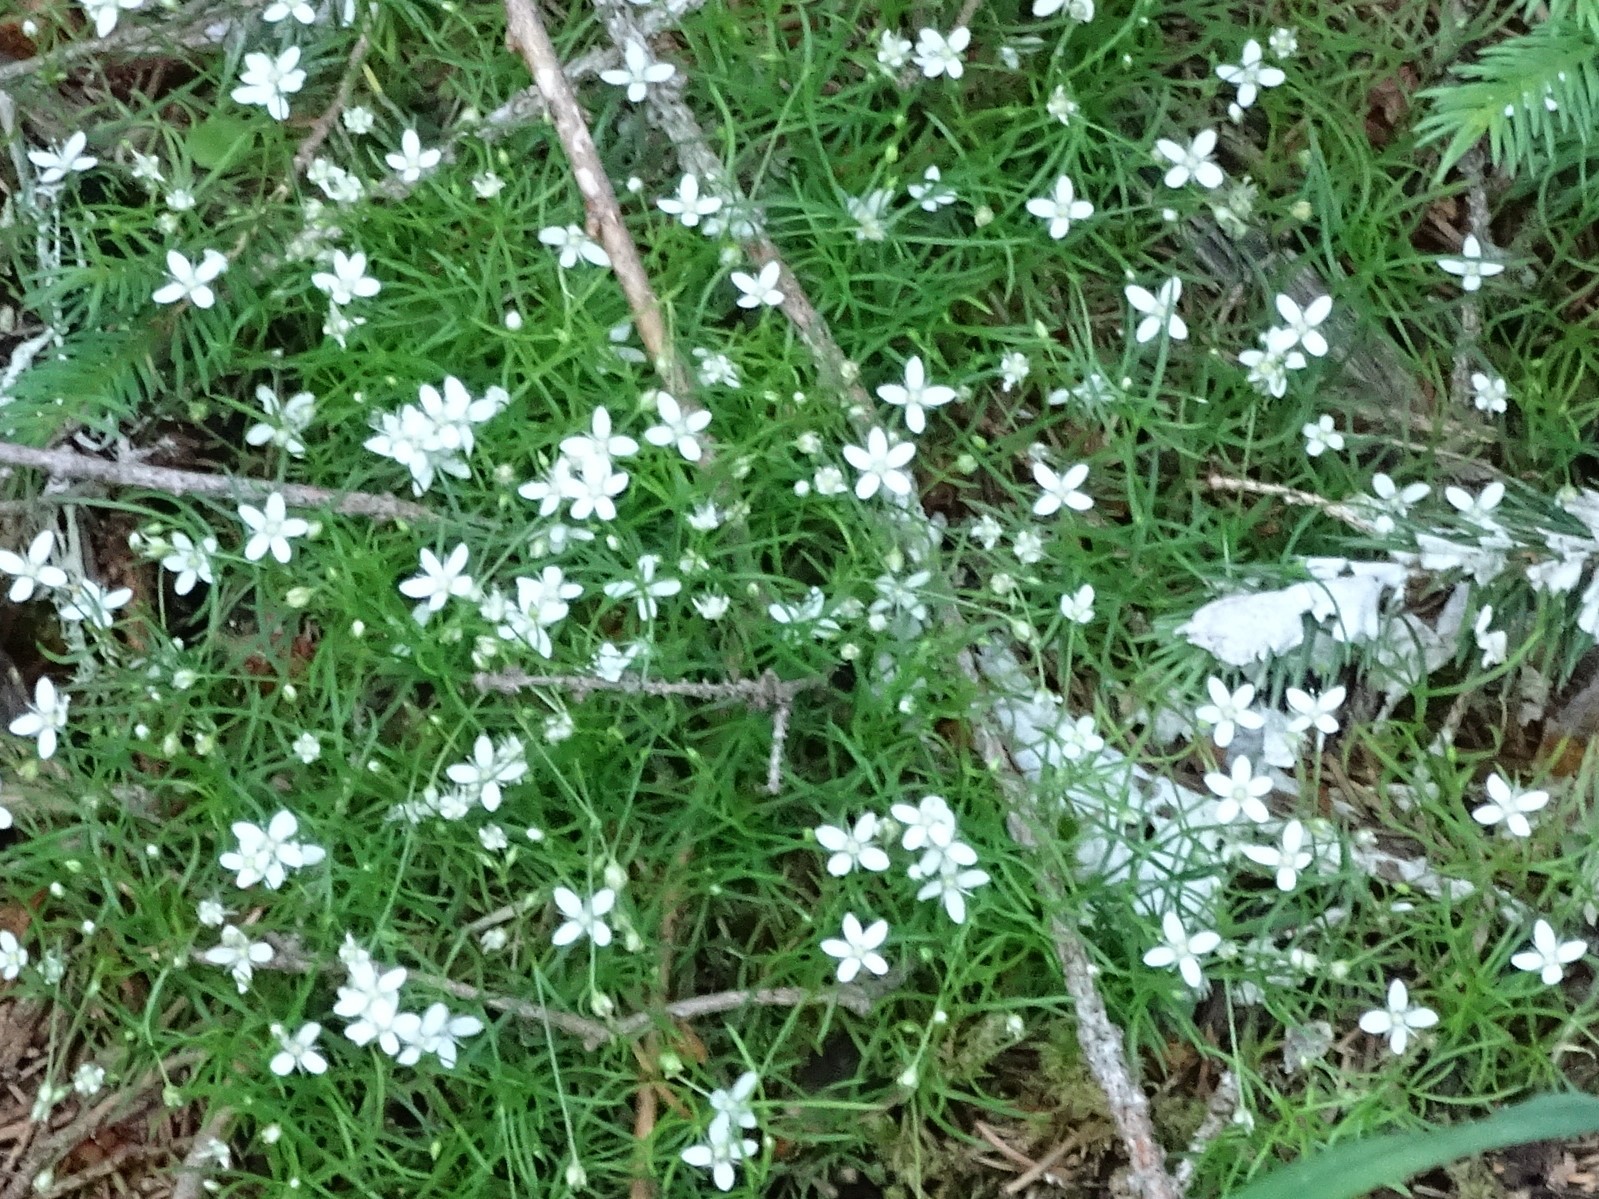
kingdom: Plantae
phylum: Tracheophyta
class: Magnoliopsida
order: Caryophyllales
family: Caryophyllaceae
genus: Moehringia
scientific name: Moehringia muscosa
